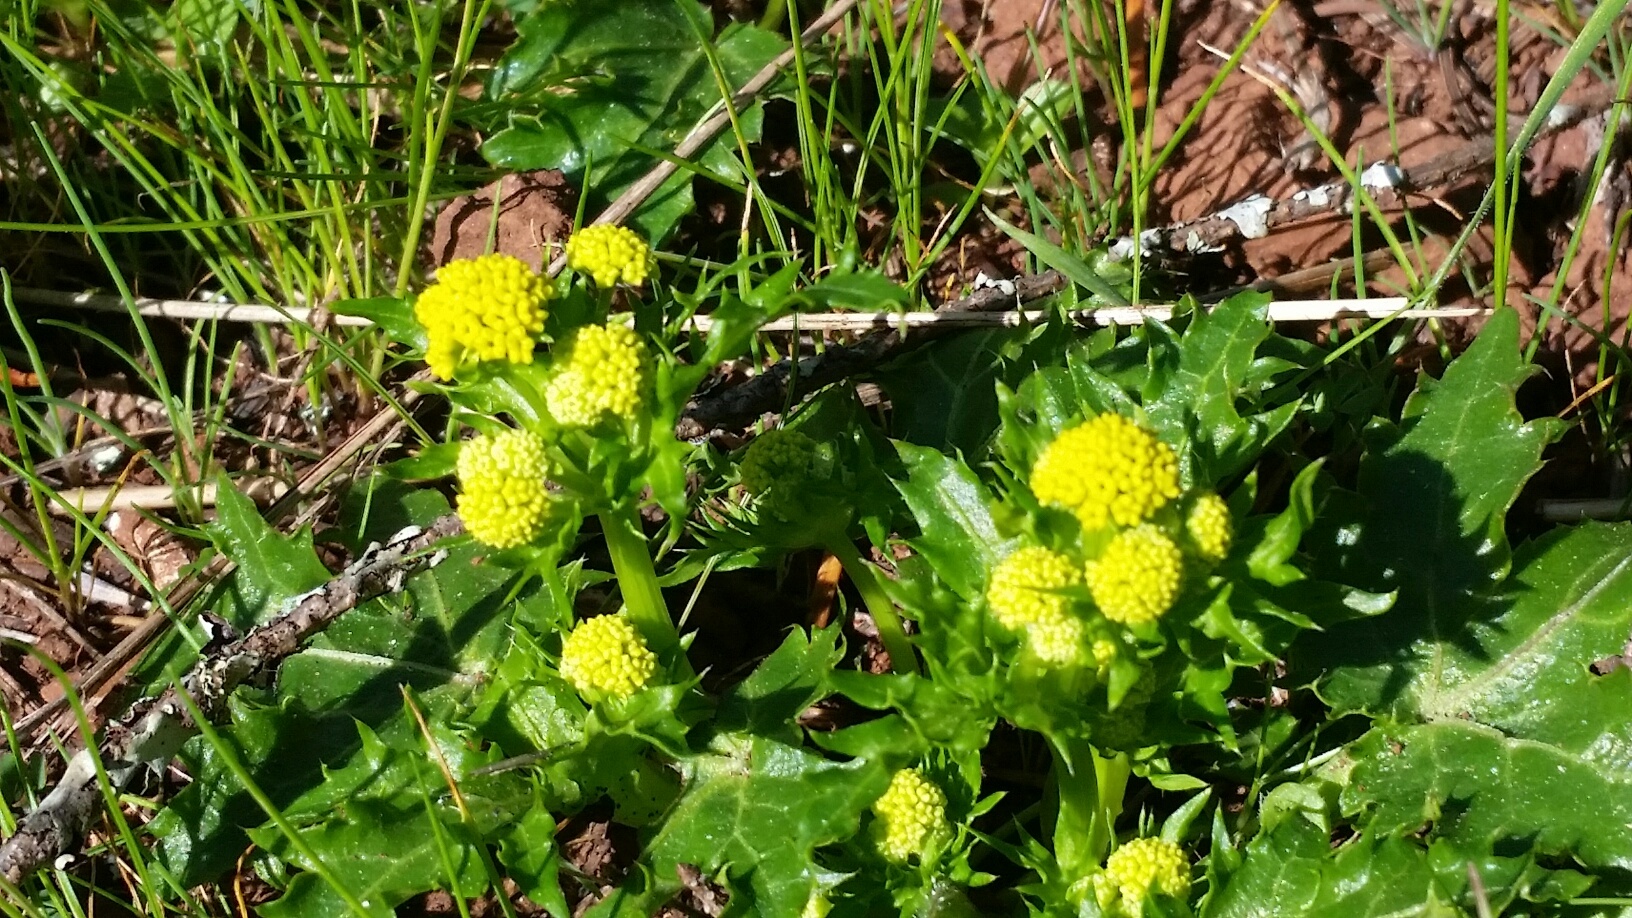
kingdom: Plantae
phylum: Tracheophyta
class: Magnoliopsida
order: Apiales
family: Apiaceae
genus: Sanicula
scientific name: Sanicula laciniata
